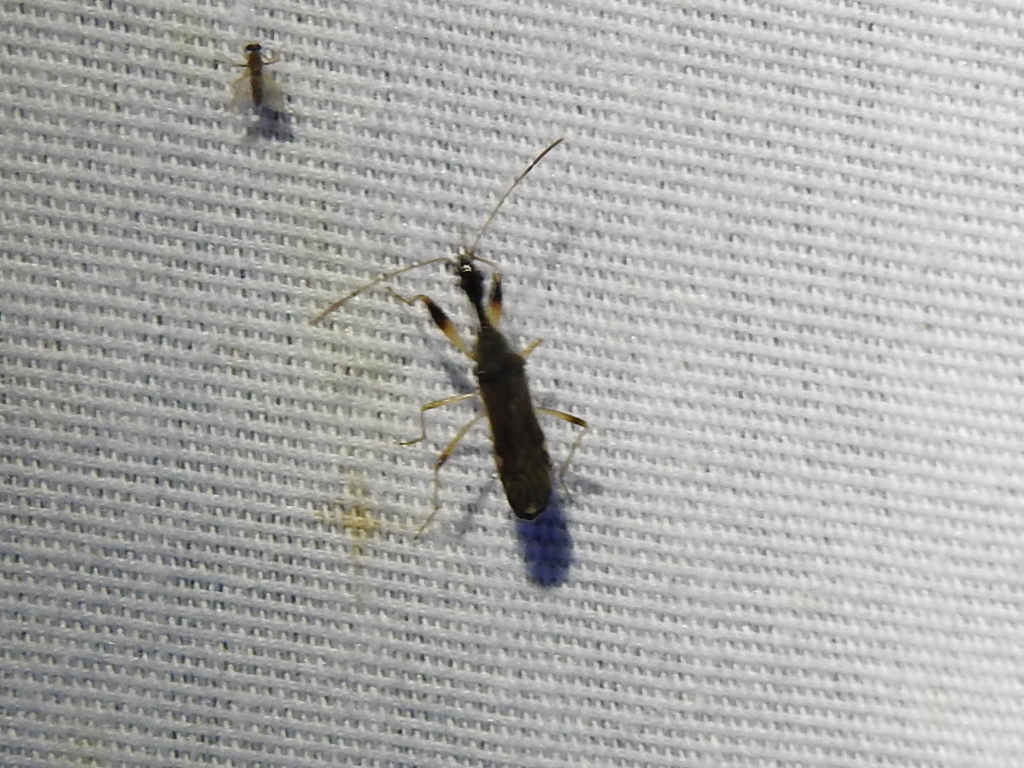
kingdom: Animalia
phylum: Arthropoda
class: Insecta
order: Hemiptera
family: Rhyparochromidae
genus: Myodocha
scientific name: Myodocha serripes
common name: Long-necked seed bug
